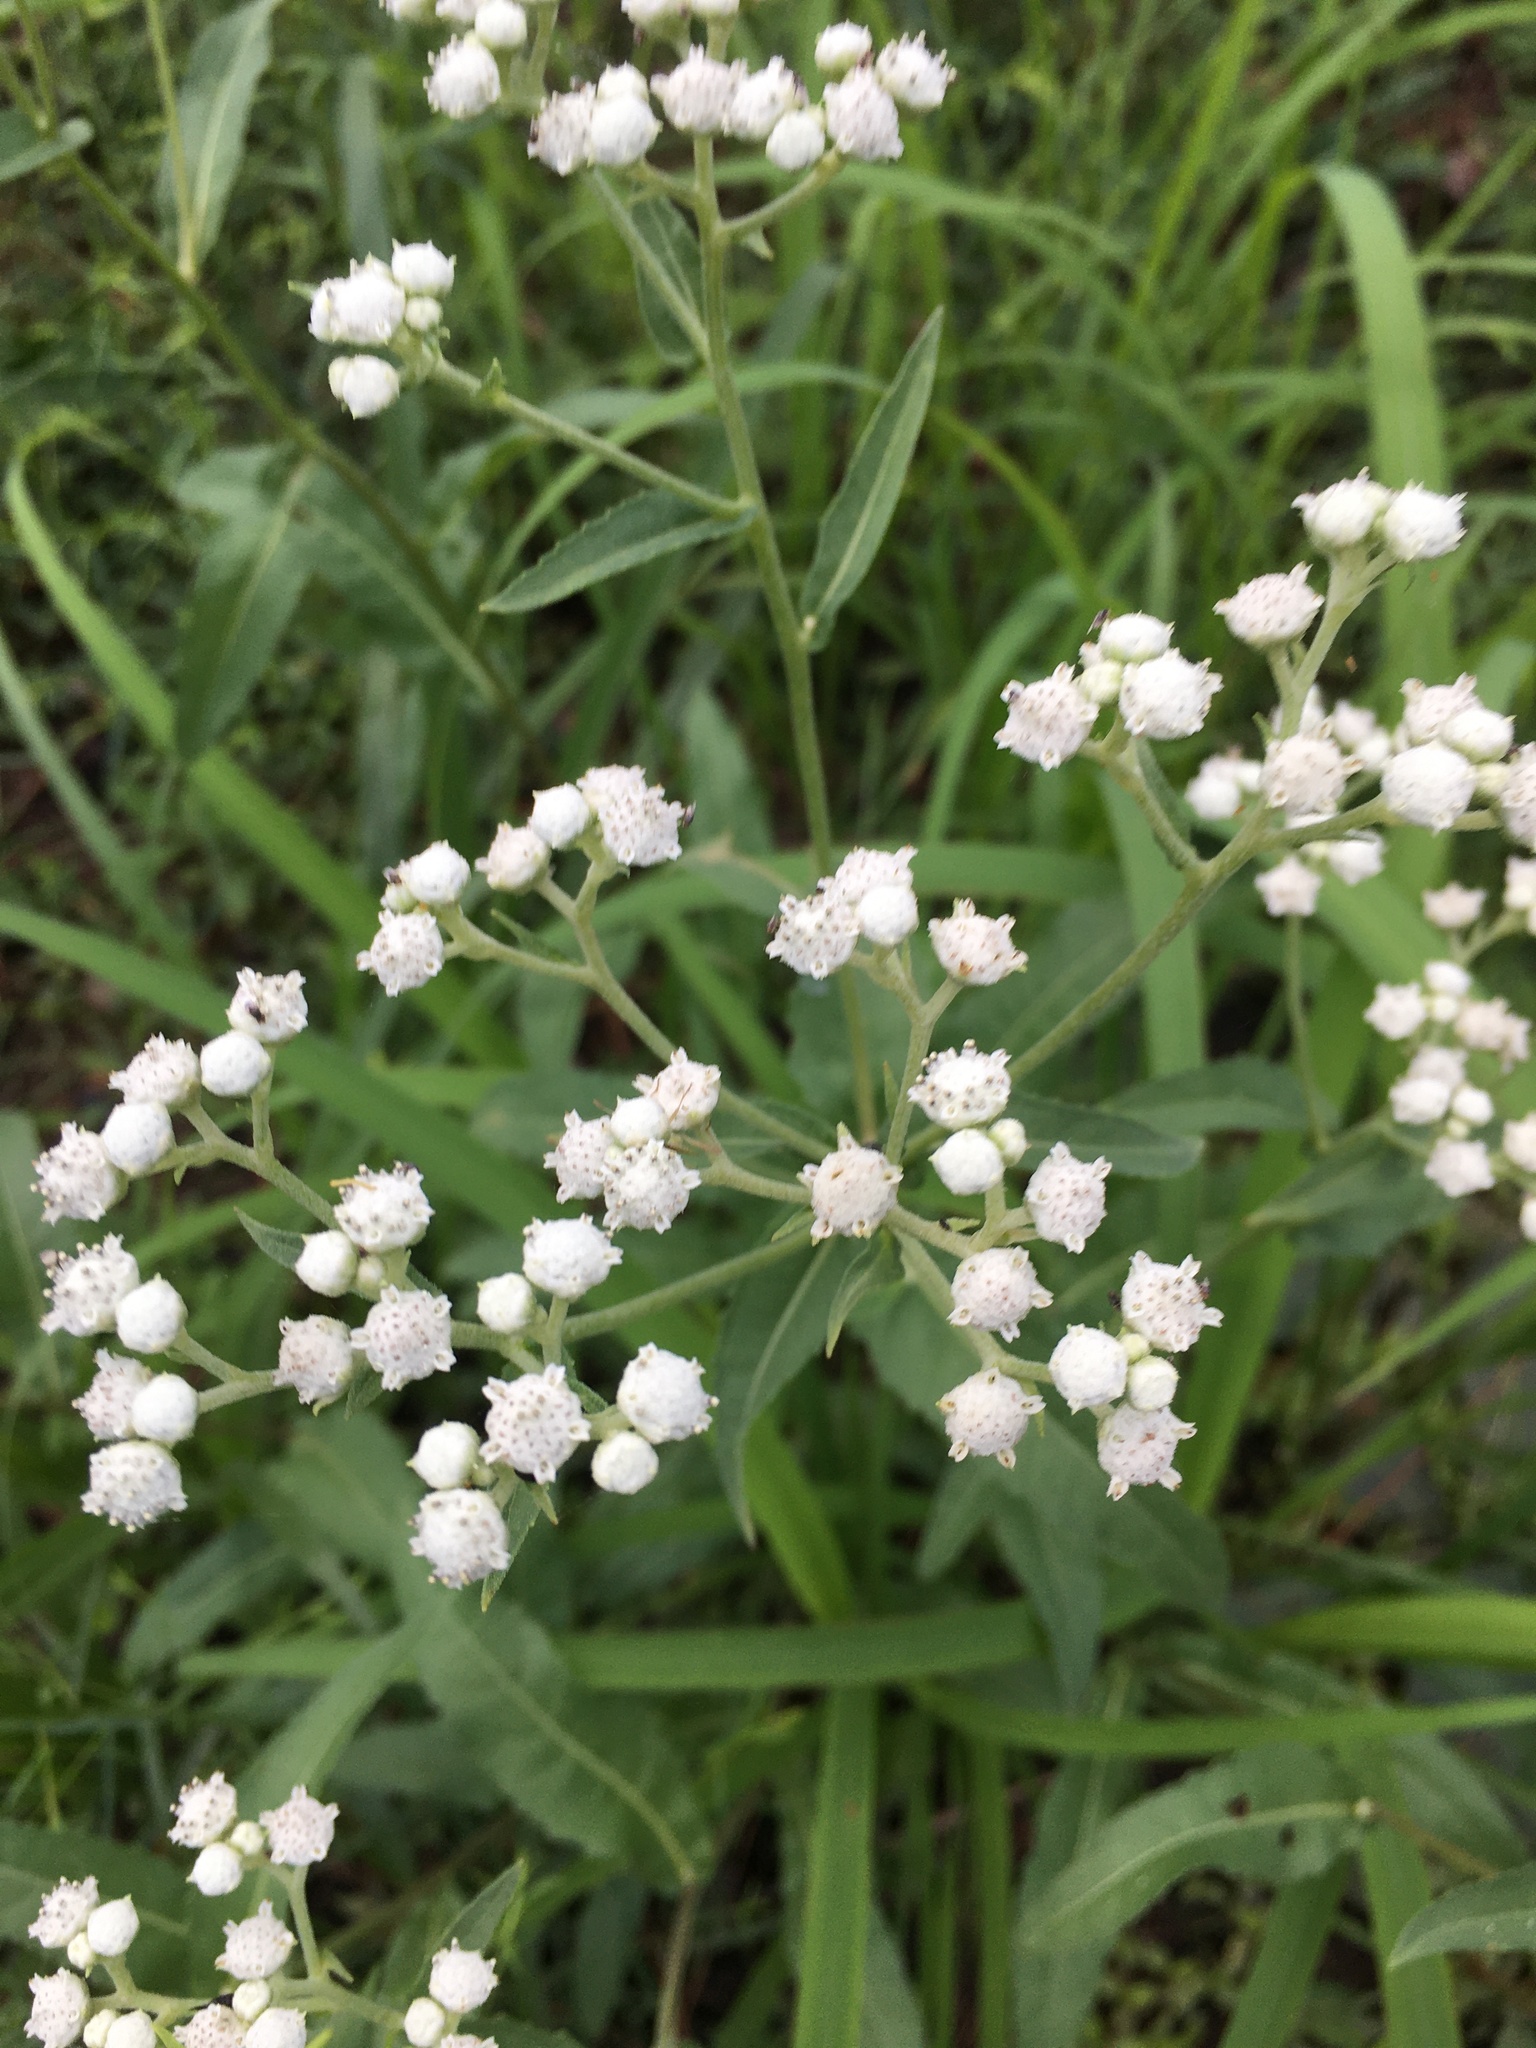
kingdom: Plantae
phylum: Tracheophyta
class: Magnoliopsida
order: Asterales
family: Asteraceae
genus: Parthenium
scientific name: Parthenium integrifolium
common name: American feverfew
